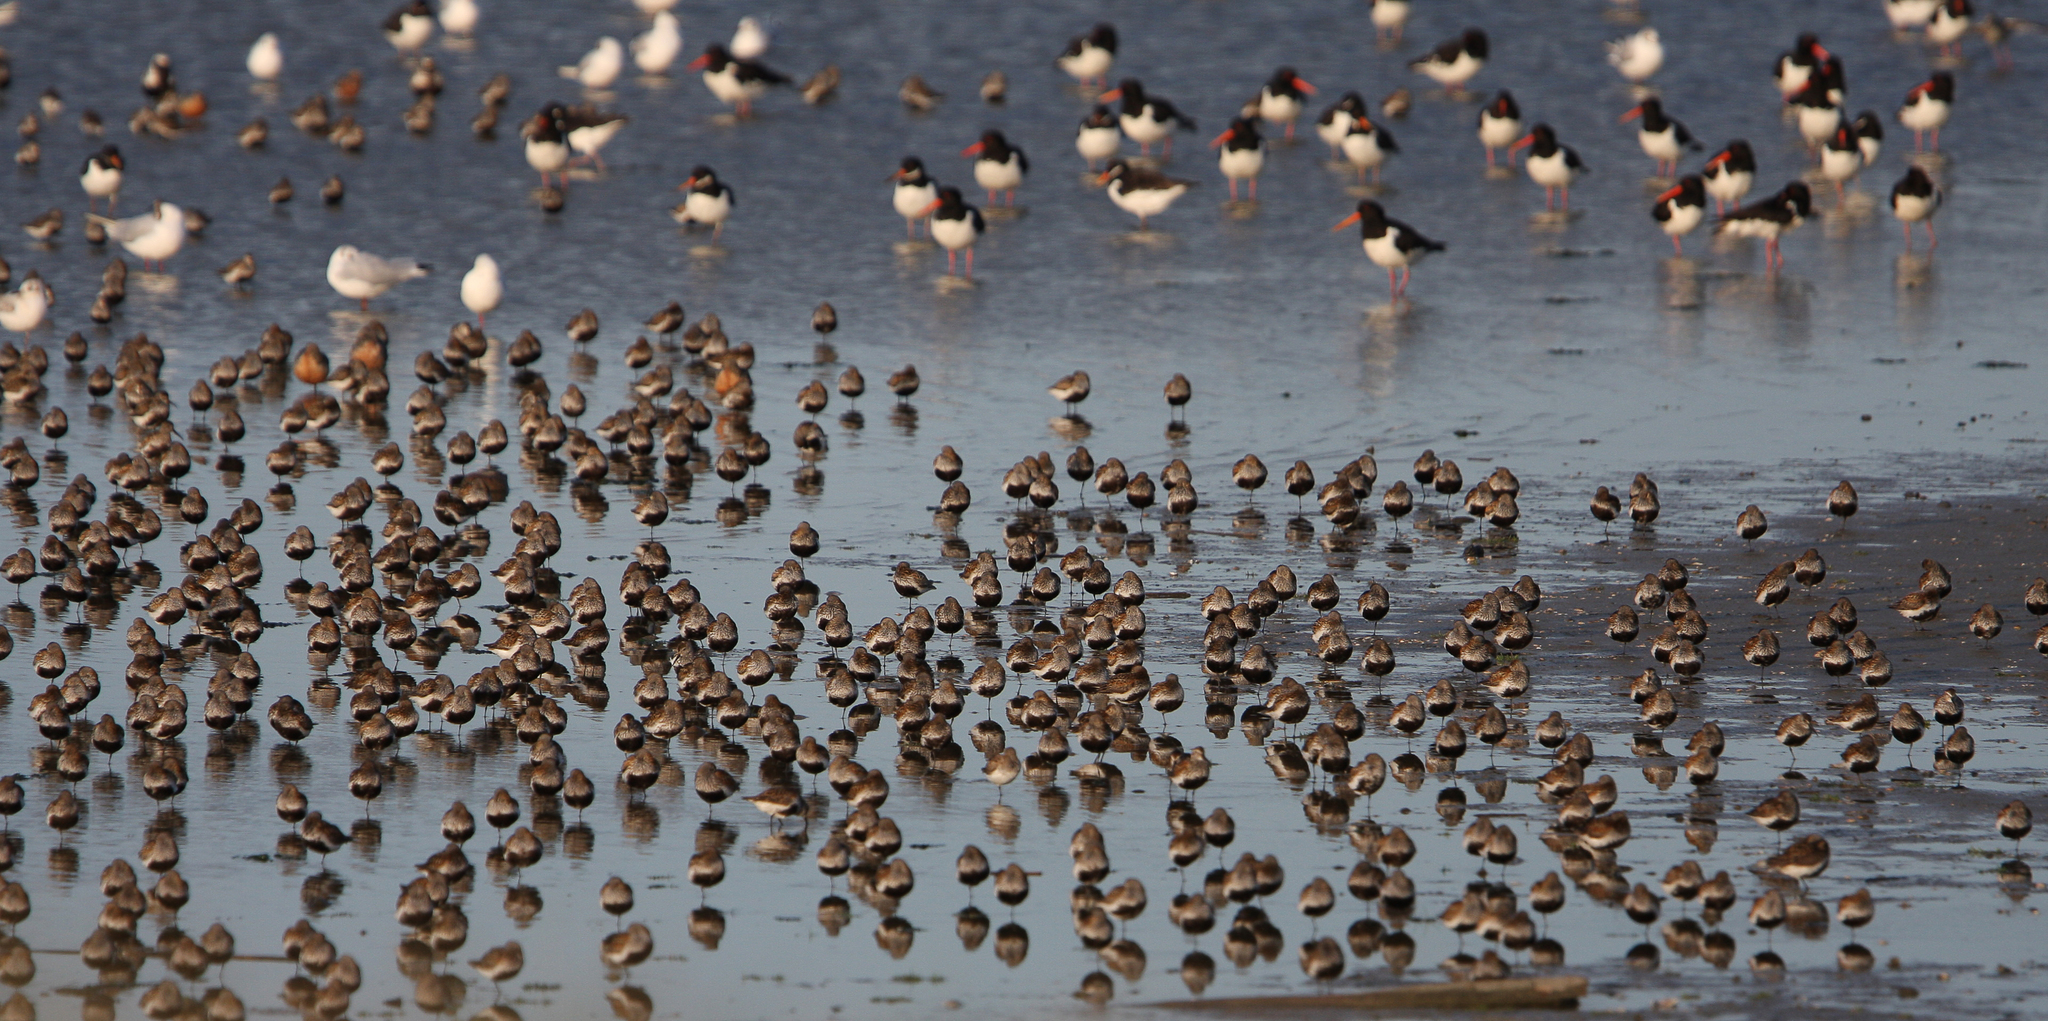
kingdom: Animalia
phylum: Chordata
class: Aves
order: Charadriiformes
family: Scolopacidae
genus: Calidris
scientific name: Calidris alpina
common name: Dunlin
